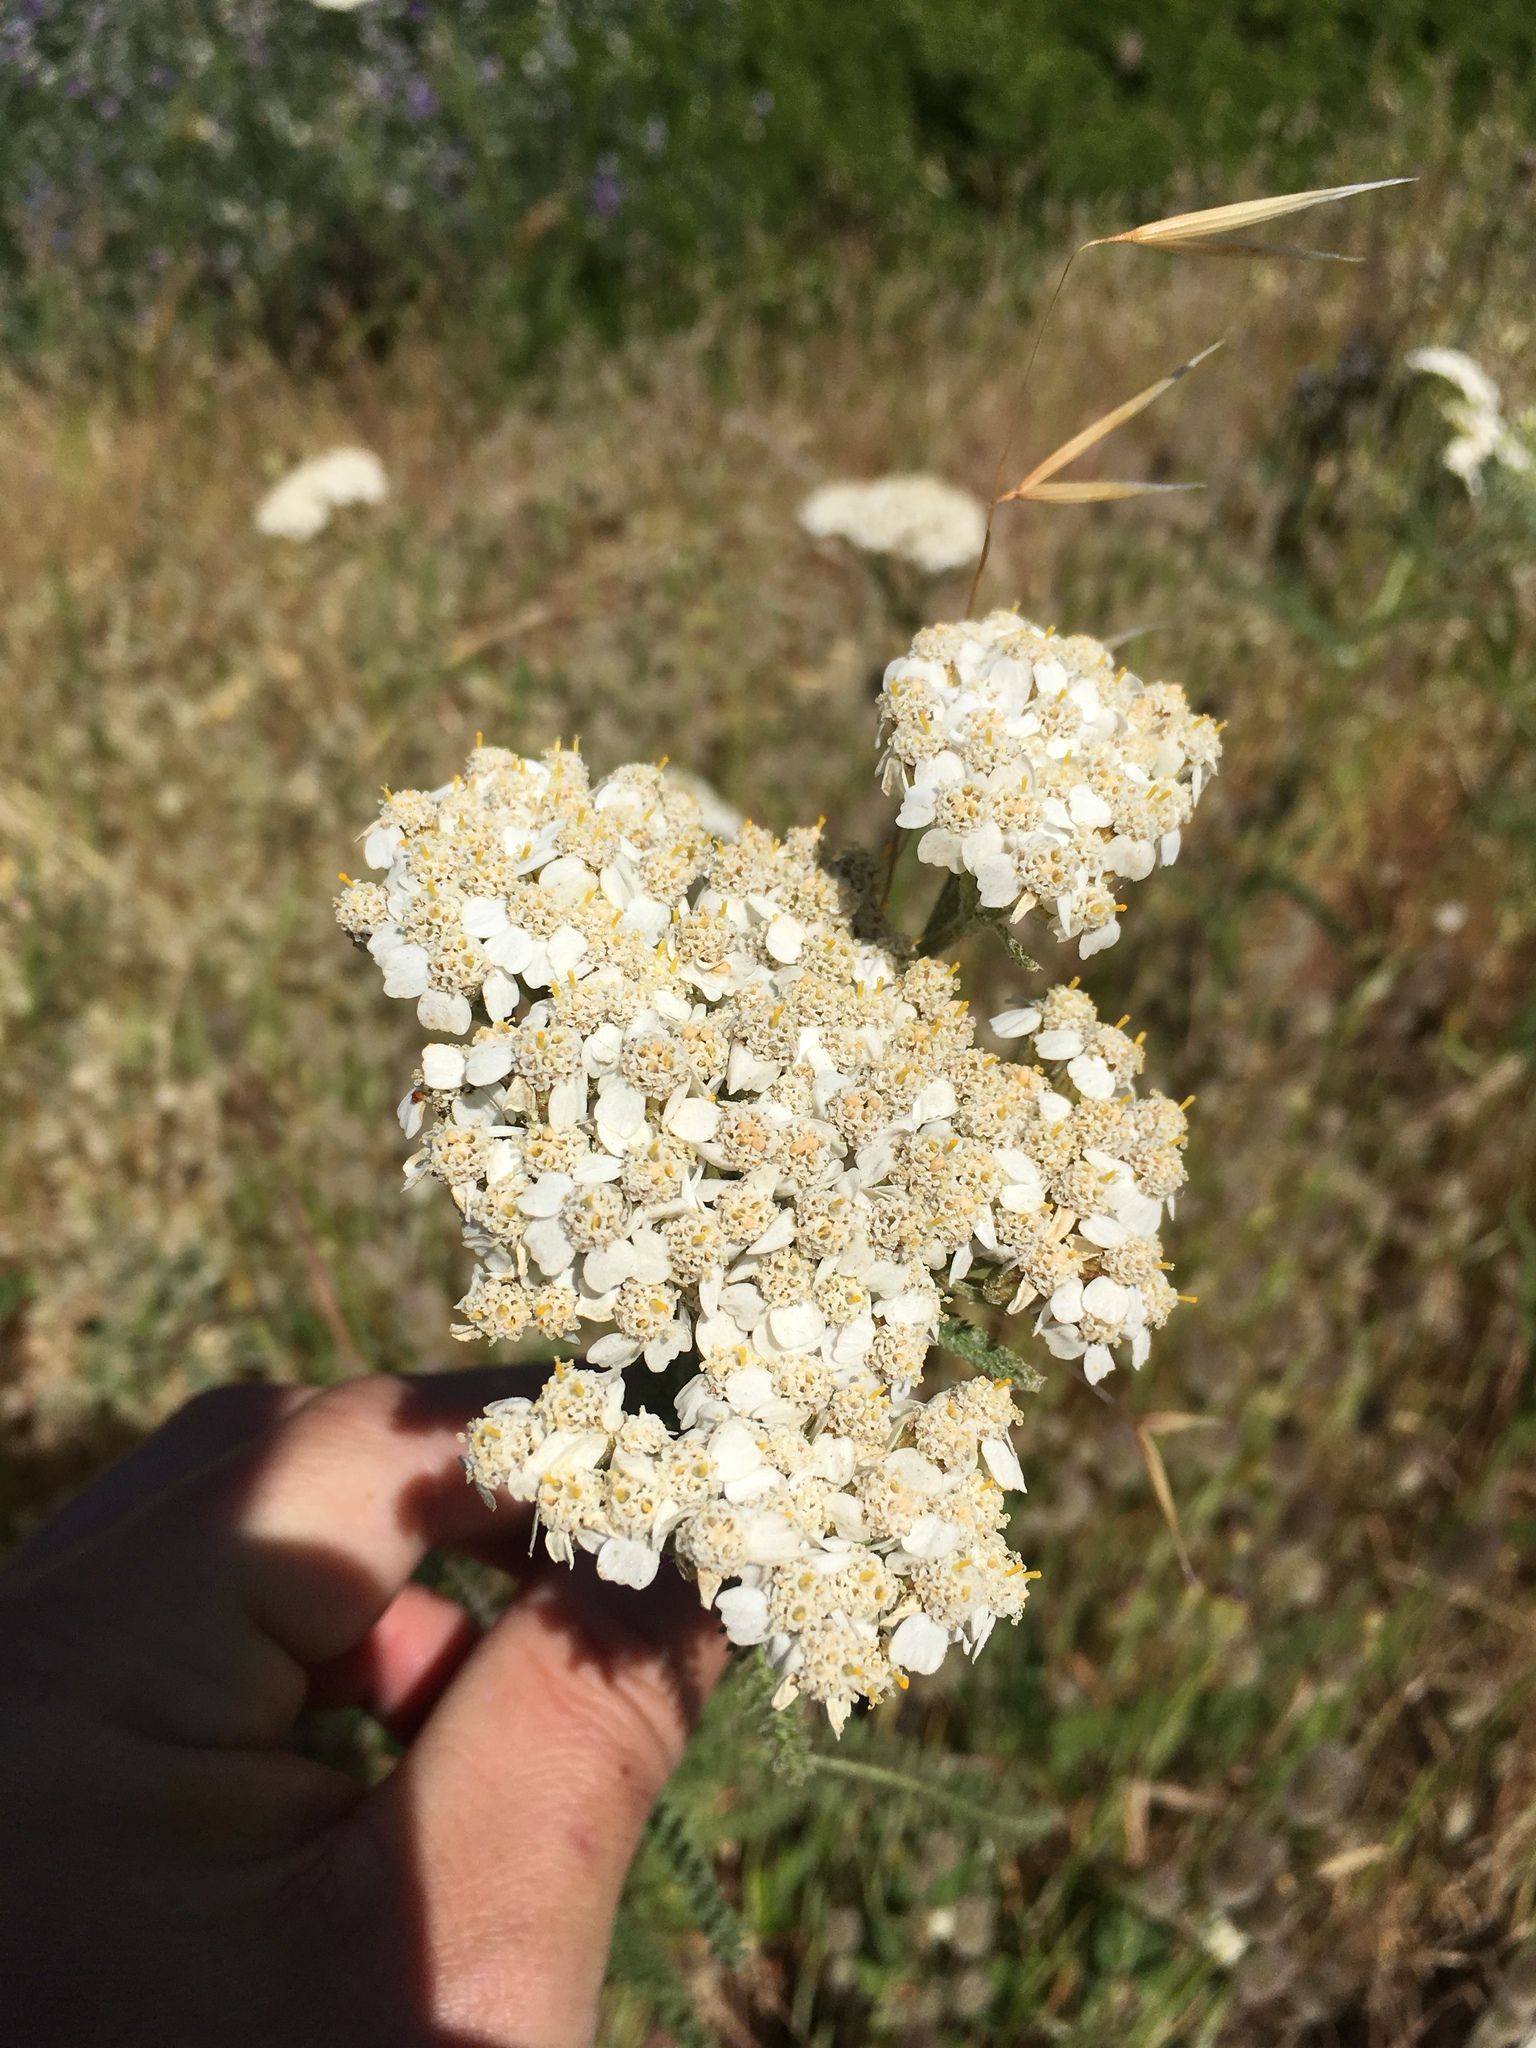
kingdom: Plantae
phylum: Tracheophyta
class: Magnoliopsida
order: Asterales
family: Asteraceae
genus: Achillea
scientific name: Achillea millefolium
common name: Yarrow
